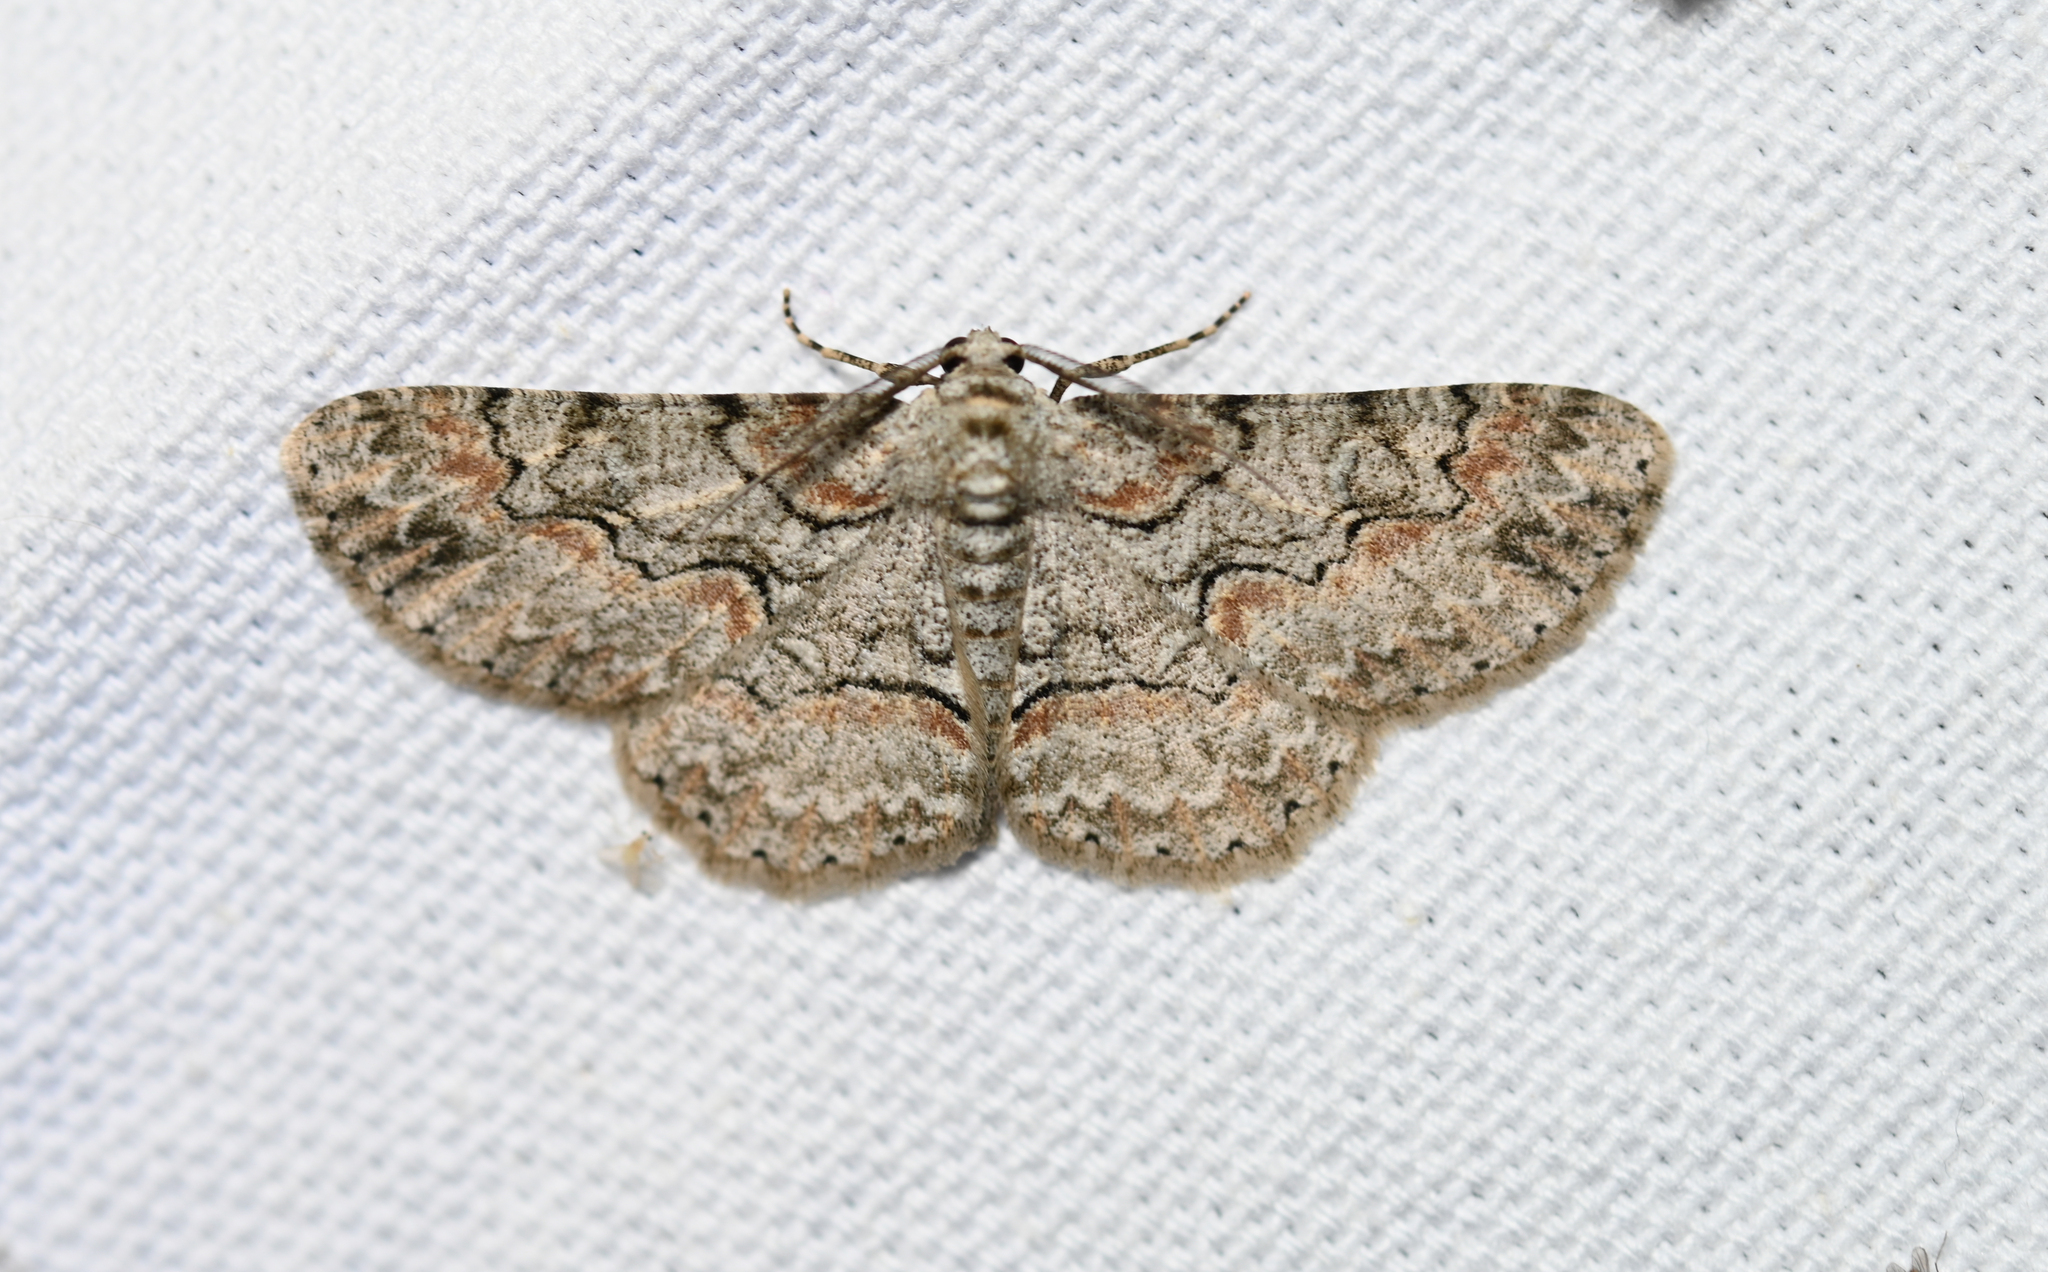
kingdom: Animalia
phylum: Arthropoda
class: Insecta
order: Lepidoptera
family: Geometridae
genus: Iridopsis
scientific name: Iridopsis defectaria
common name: Brown-shaded gray
